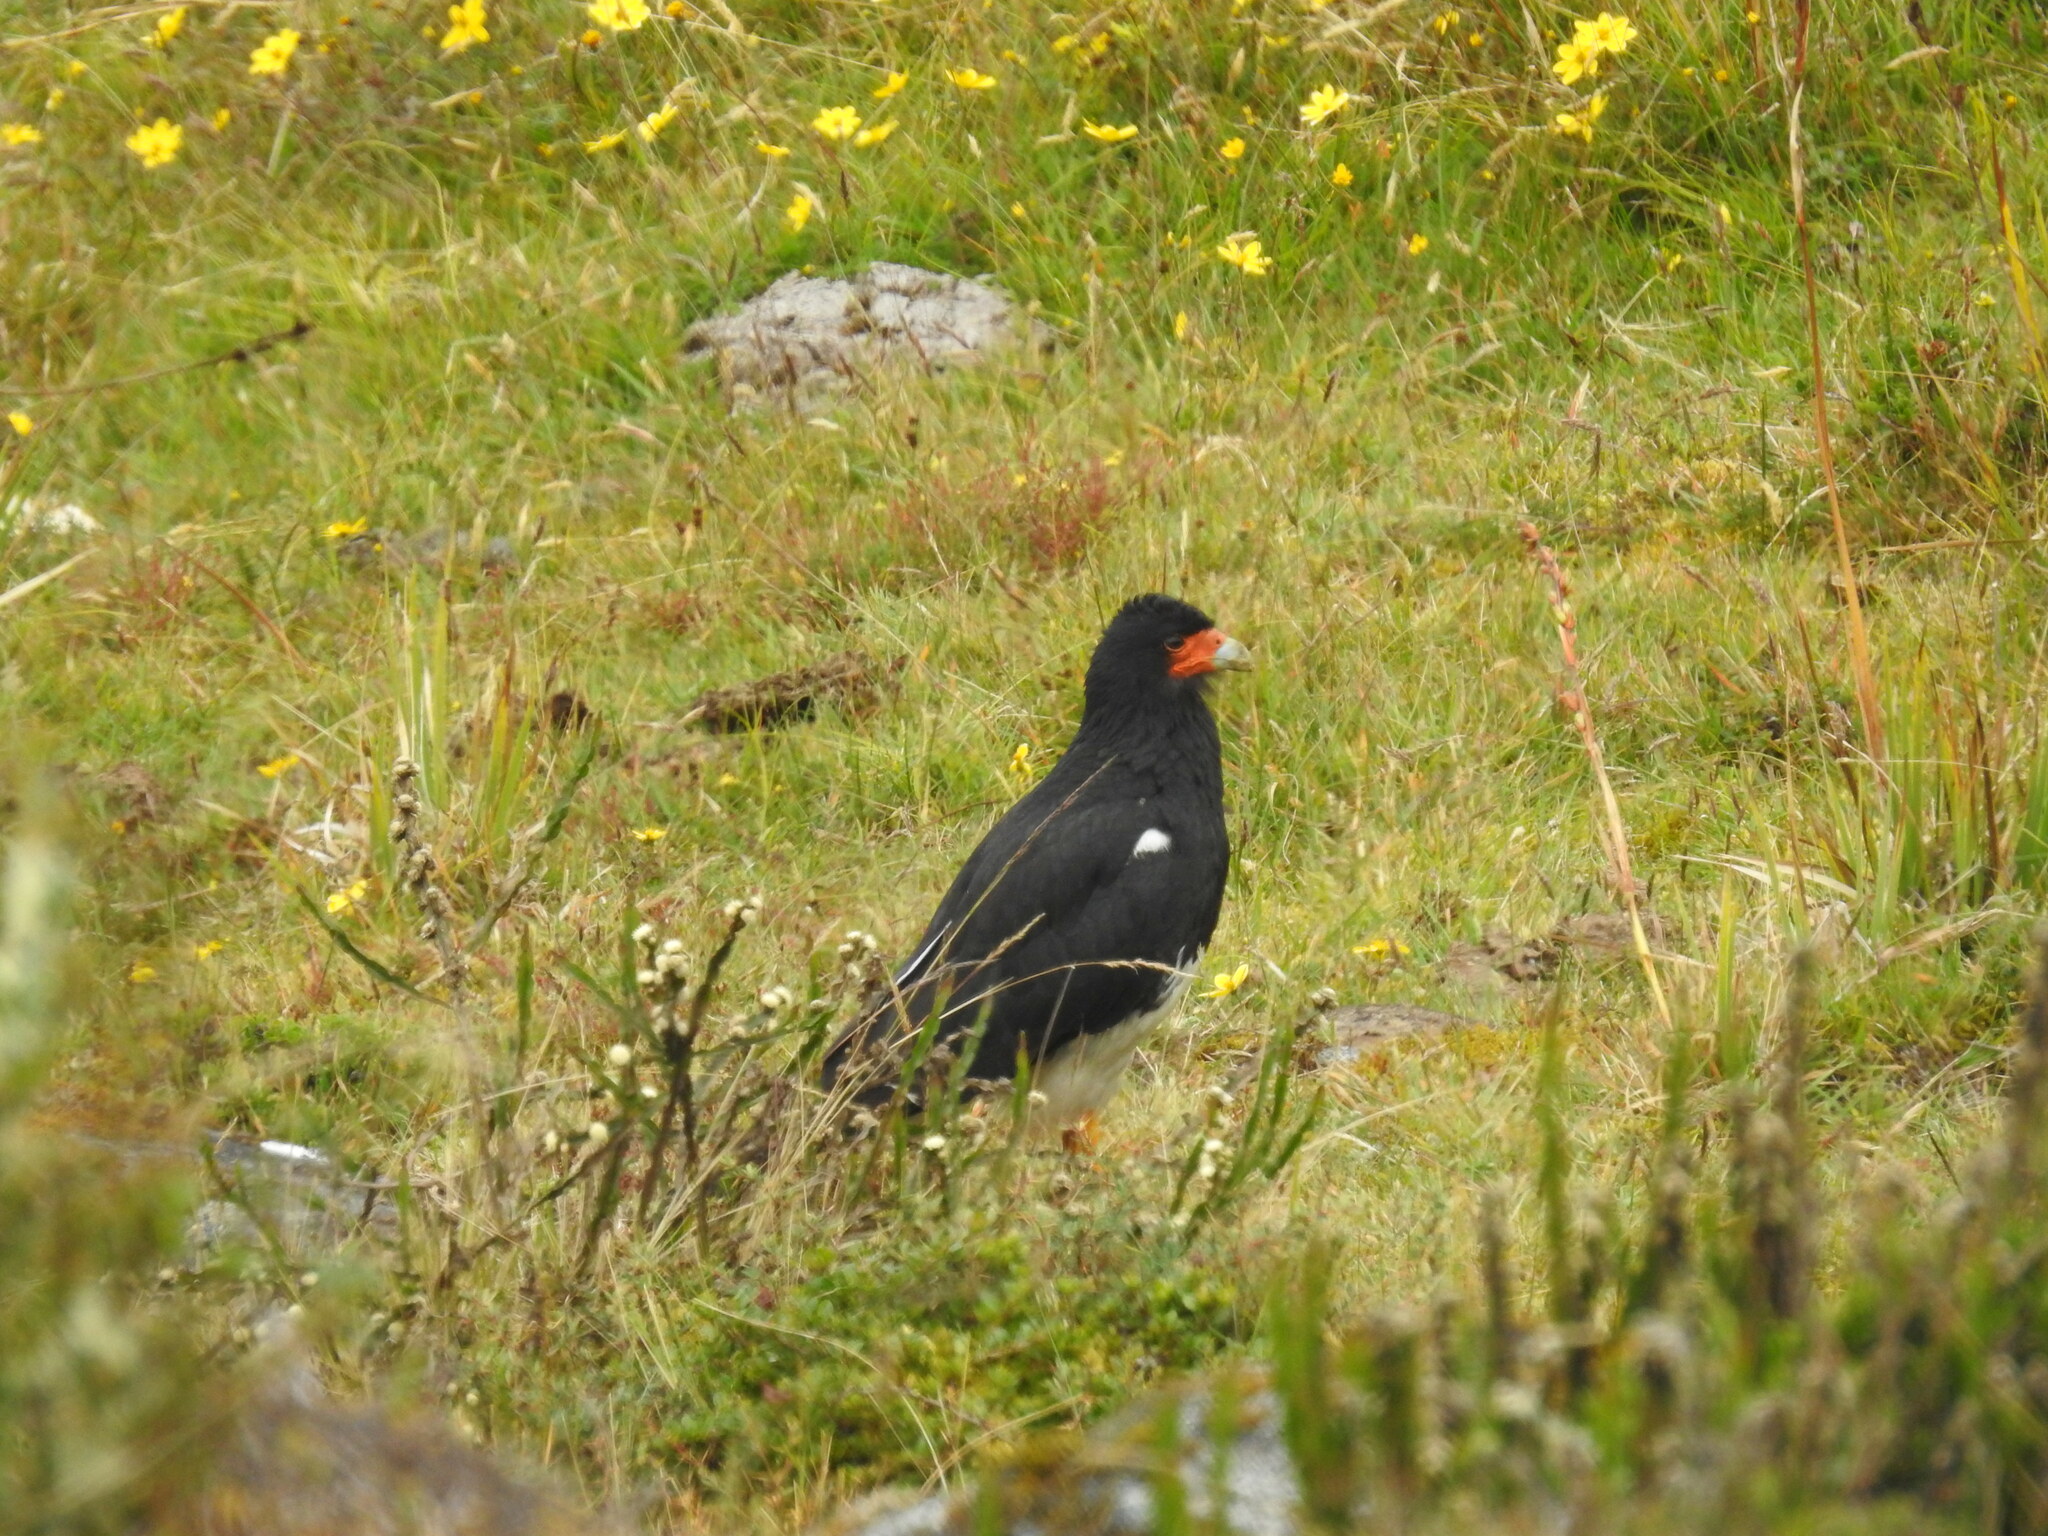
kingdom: Animalia
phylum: Chordata
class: Aves
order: Falconiformes
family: Falconidae
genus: Daptrius
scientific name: Daptrius
